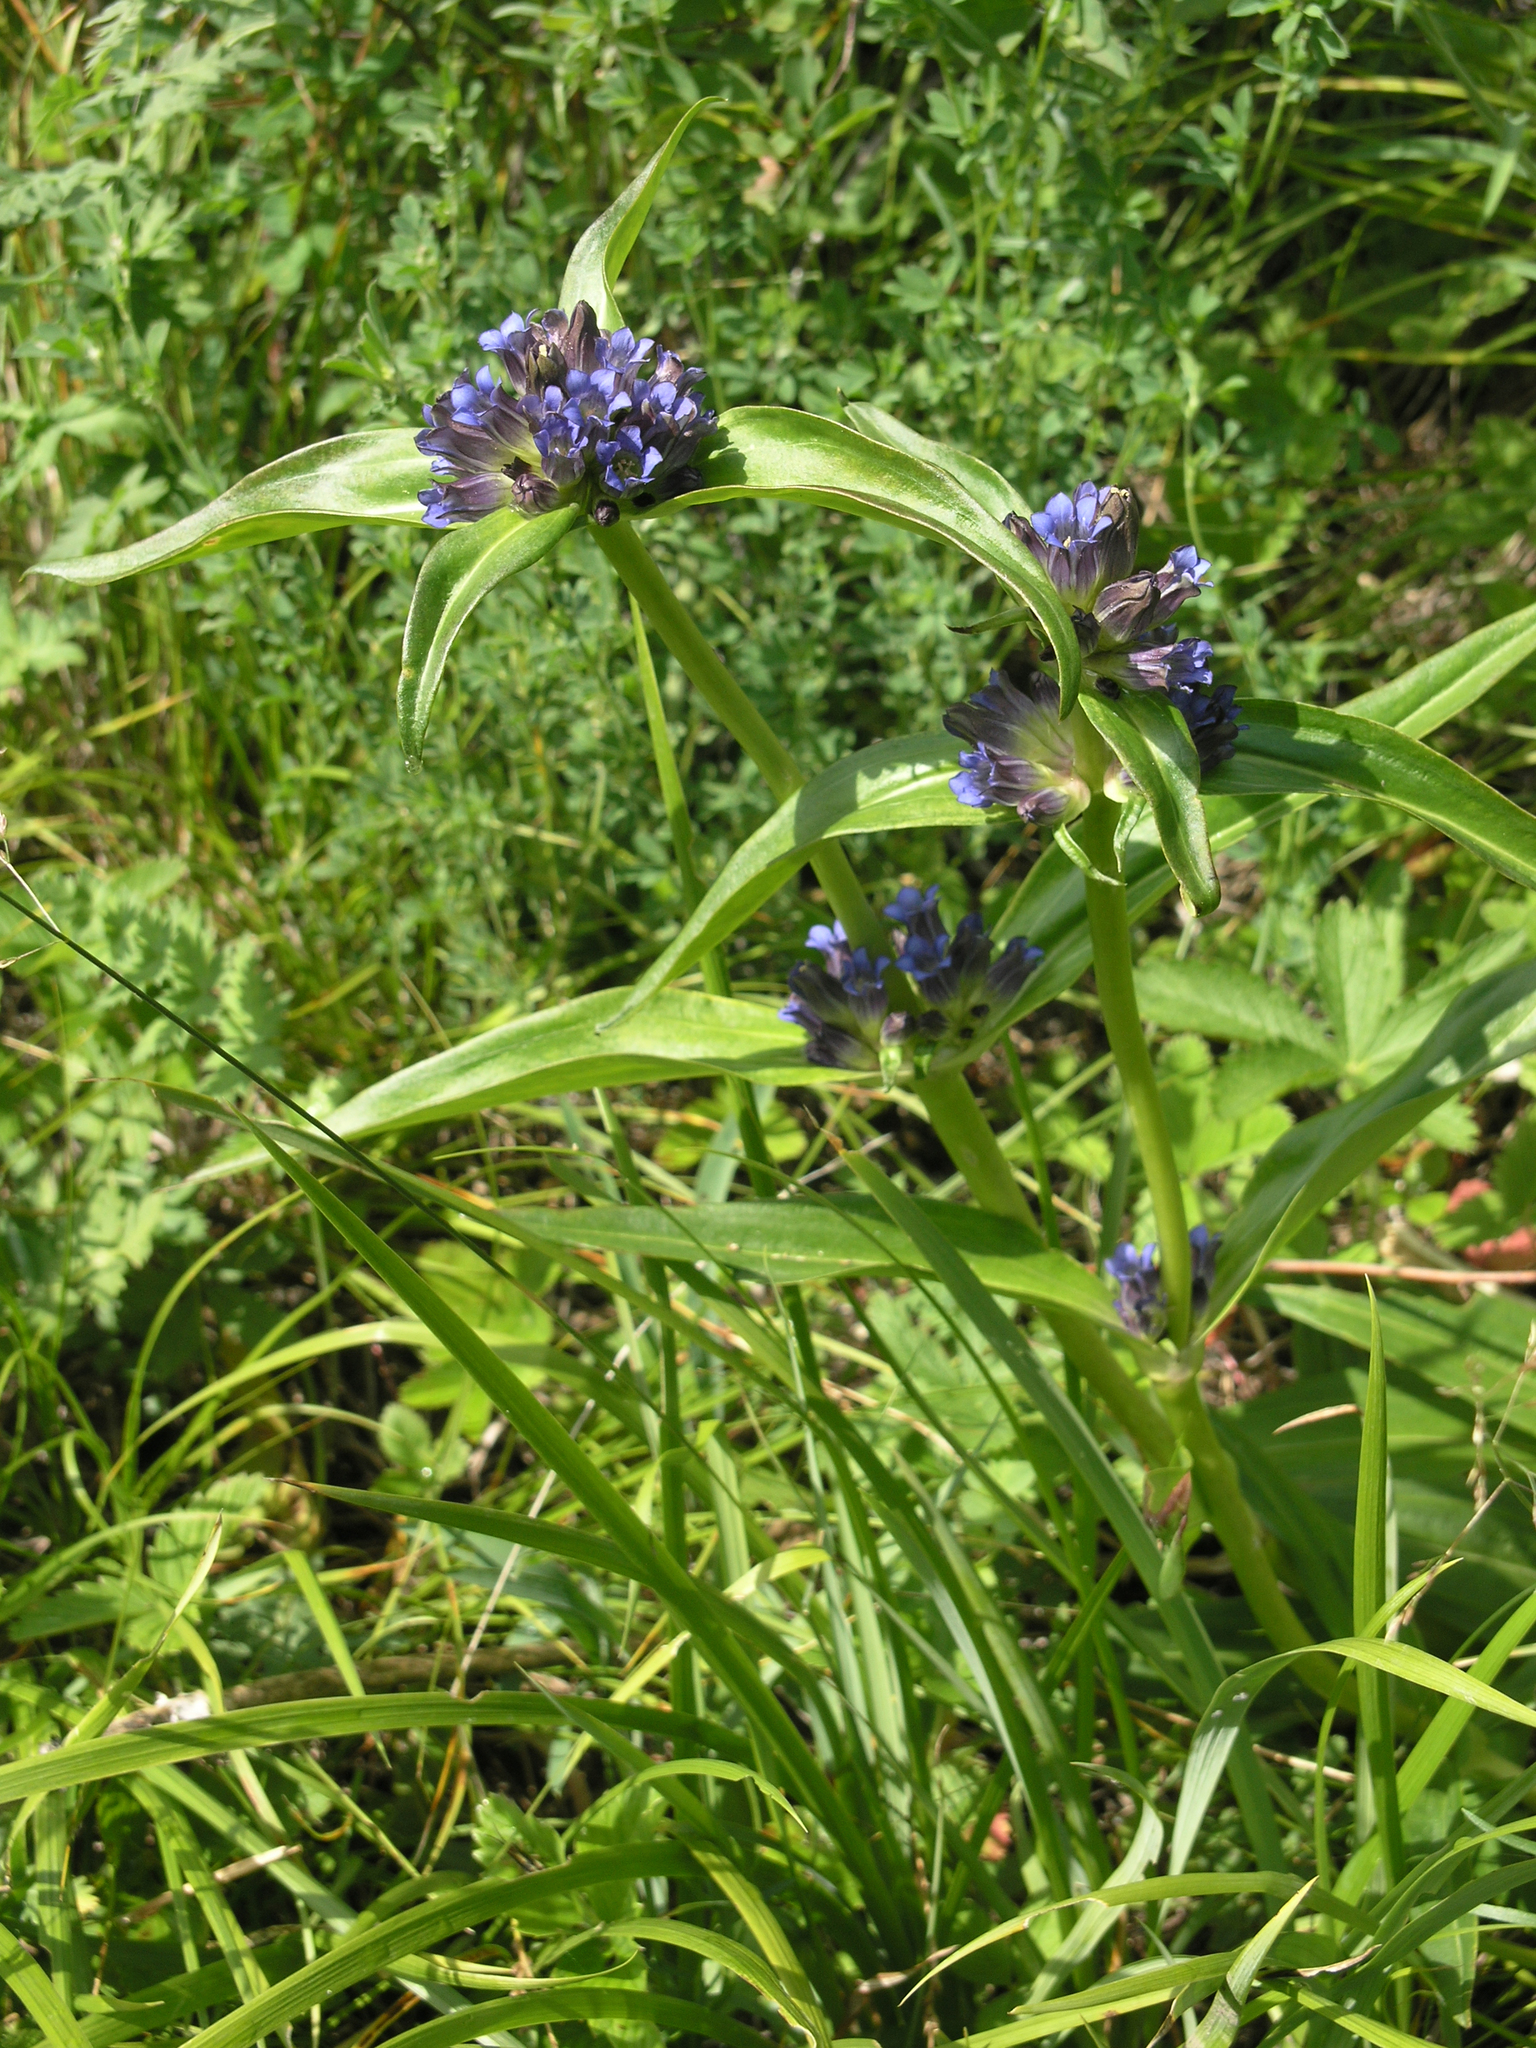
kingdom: Plantae
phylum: Tracheophyta
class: Magnoliopsida
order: Gentianales
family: Gentianaceae
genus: Gentiana
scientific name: Gentiana macrophylla
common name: Large-leaf gentian
